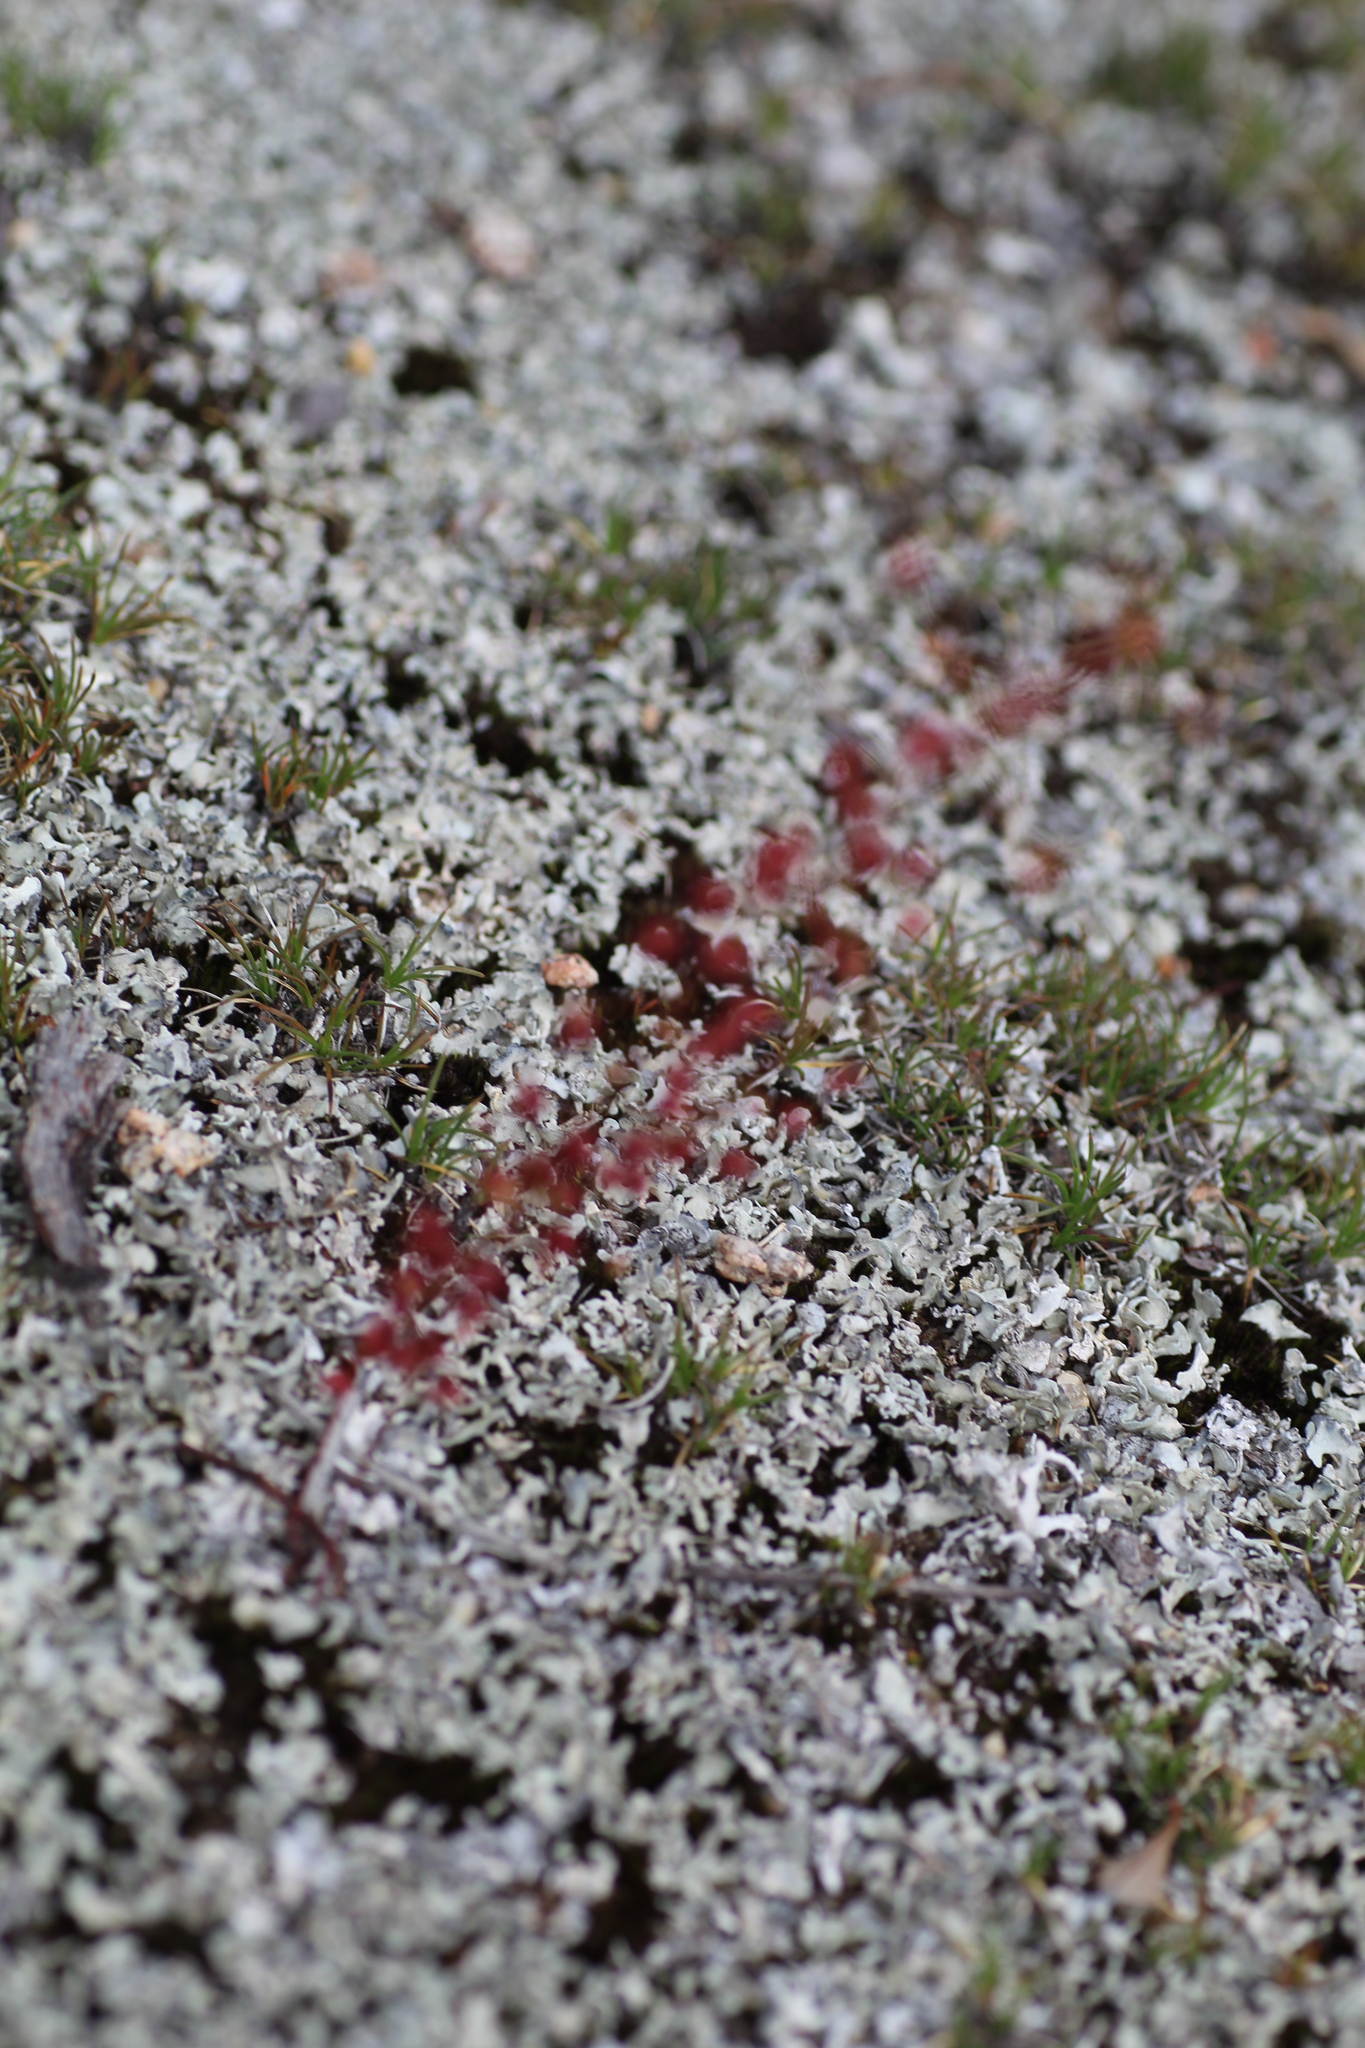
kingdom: Plantae
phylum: Tracheophyta
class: Magnoliopsida
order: Caryophyllales
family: Droseraceae
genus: Drosera
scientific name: Drosera macrantha
